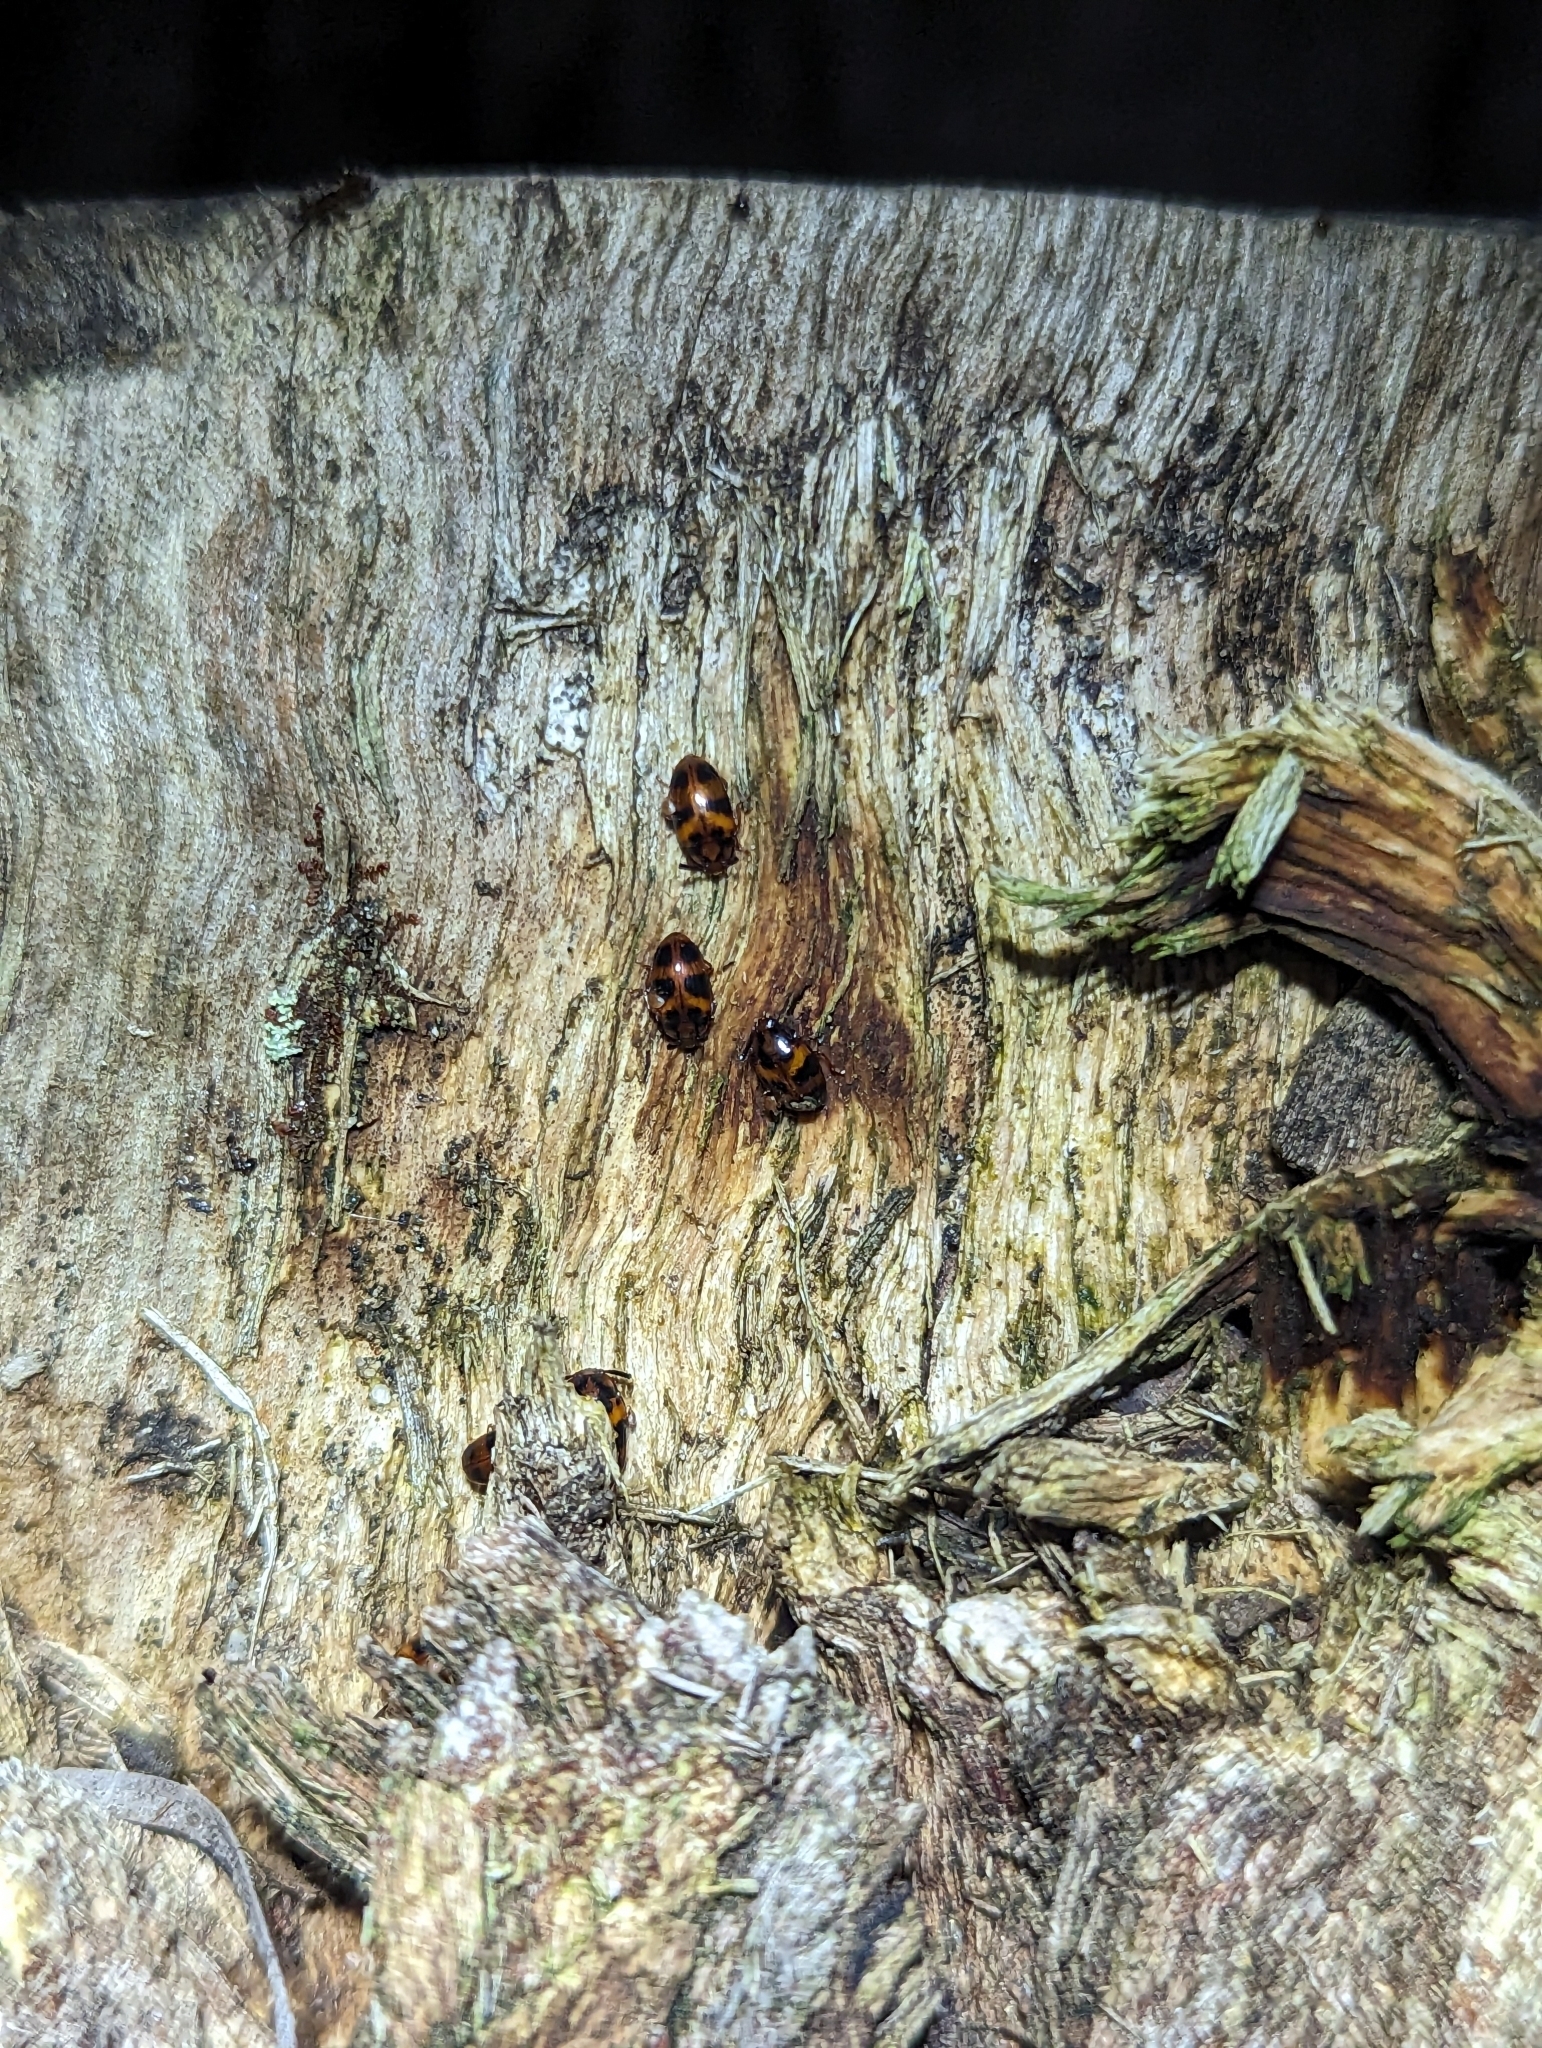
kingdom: Animalia
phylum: Arthropoda
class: Insecta
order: Coleoptera
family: Tenebrionidae
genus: Spiloscapha
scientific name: Spiloscapha
